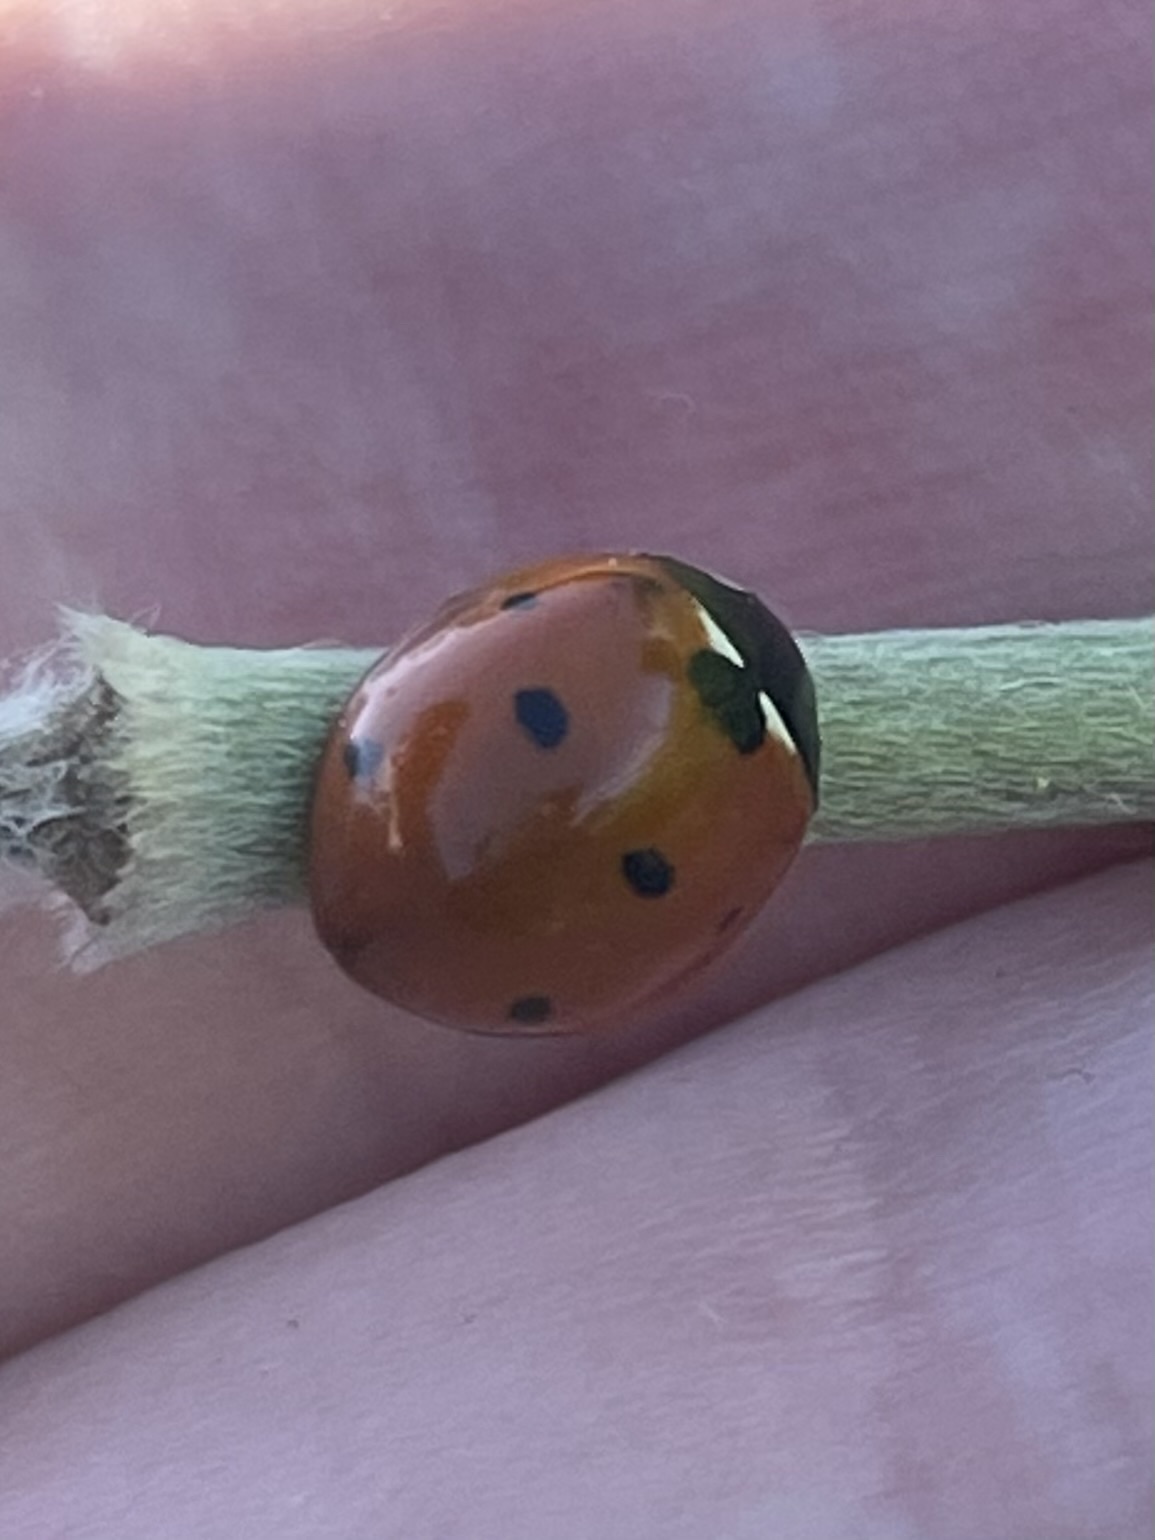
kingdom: Animalia
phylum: Arthropoda
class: Insecta
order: Coleoptera
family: Coccinellidae
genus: Coccinella
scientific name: Coccinella septempunctata
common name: Sevenspotted lady beetle
